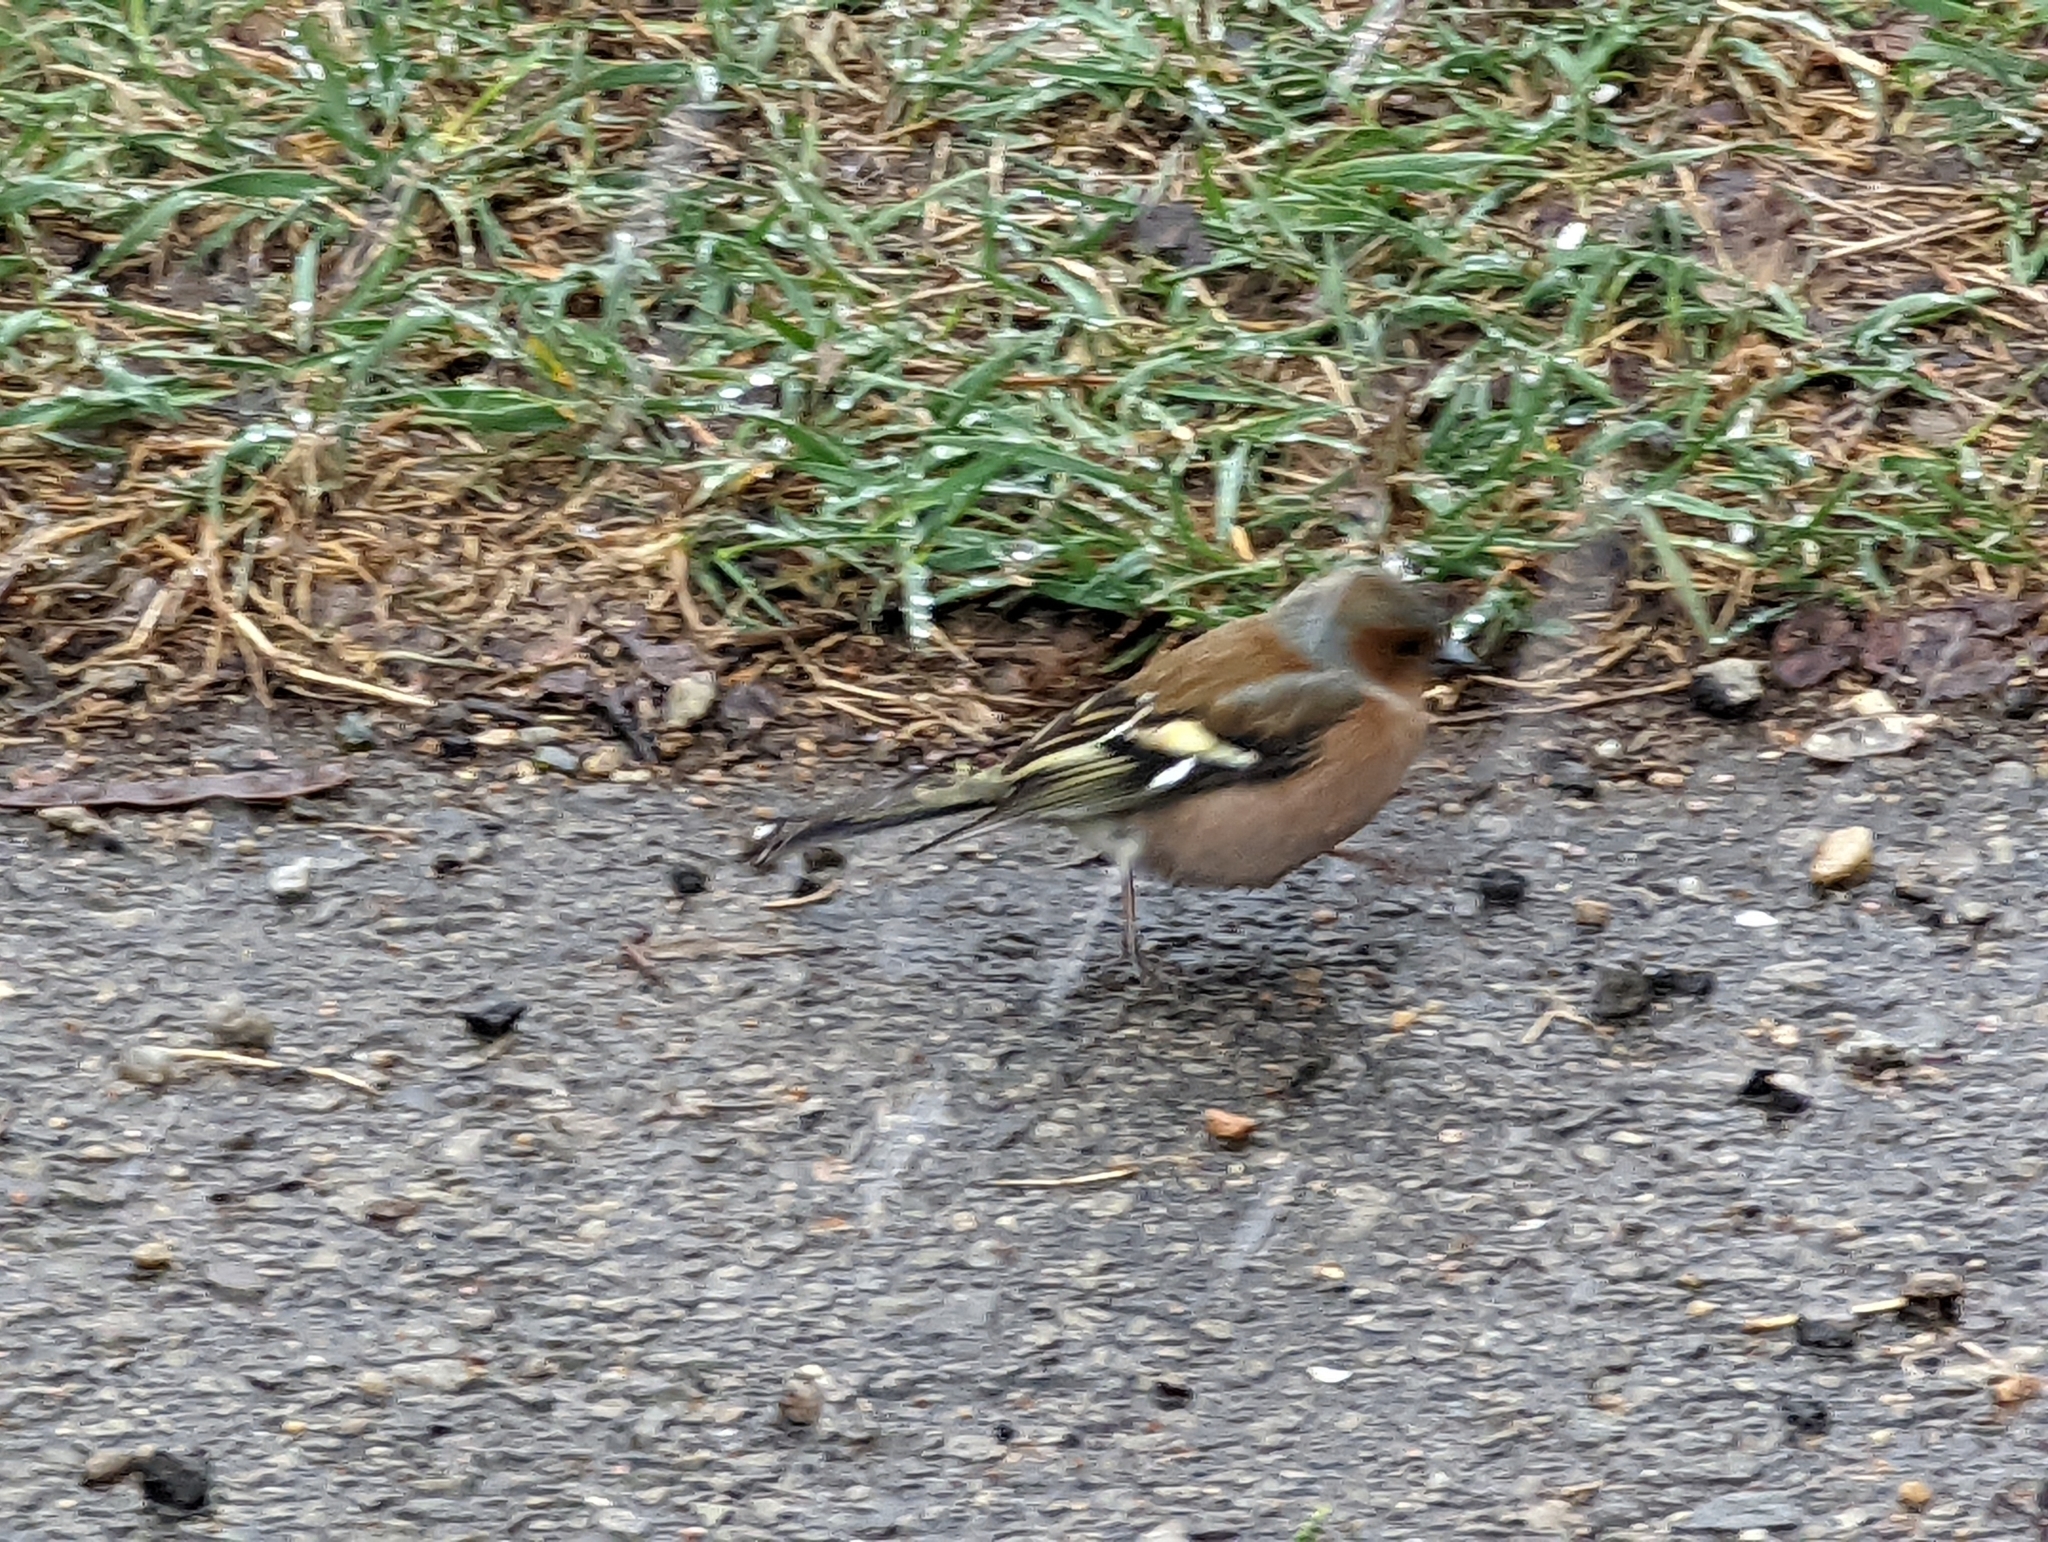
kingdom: Animalia
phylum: Chordata
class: Aves
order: Passeriformes
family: Fringillidae
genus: Fringilla
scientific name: Fringilla coelebs
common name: Common chaffinch
